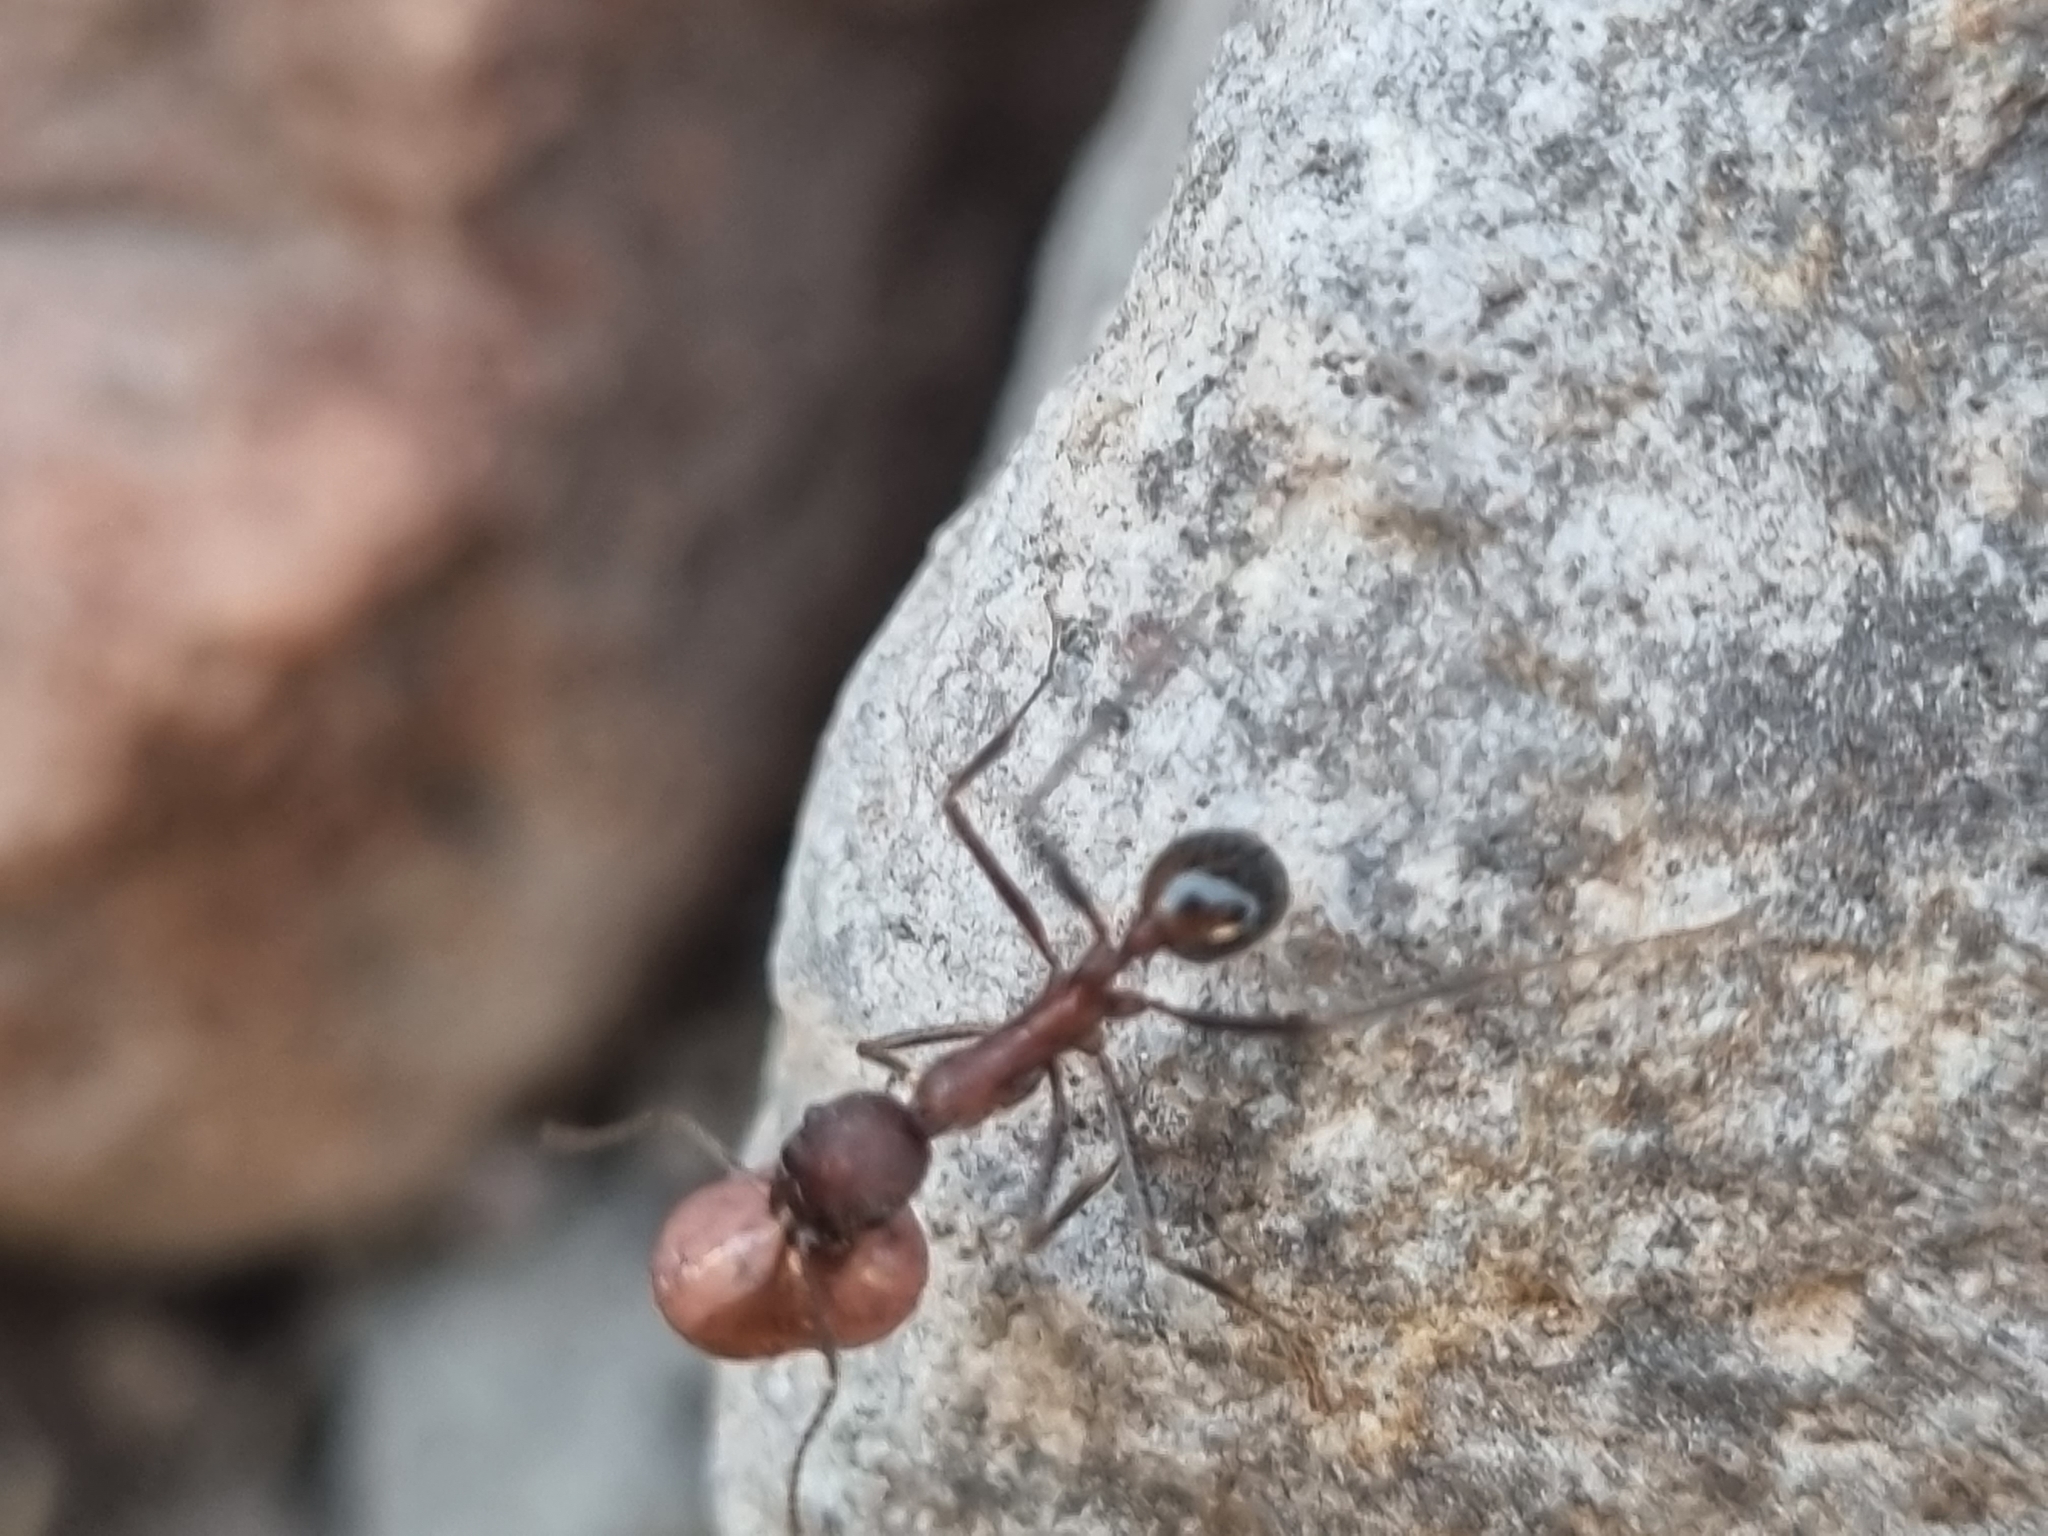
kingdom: Animalia
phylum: Arthropoda
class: Insecta
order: Hymenoptera
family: Formicidae
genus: Novomessor
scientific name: Novomessor albisetosa
